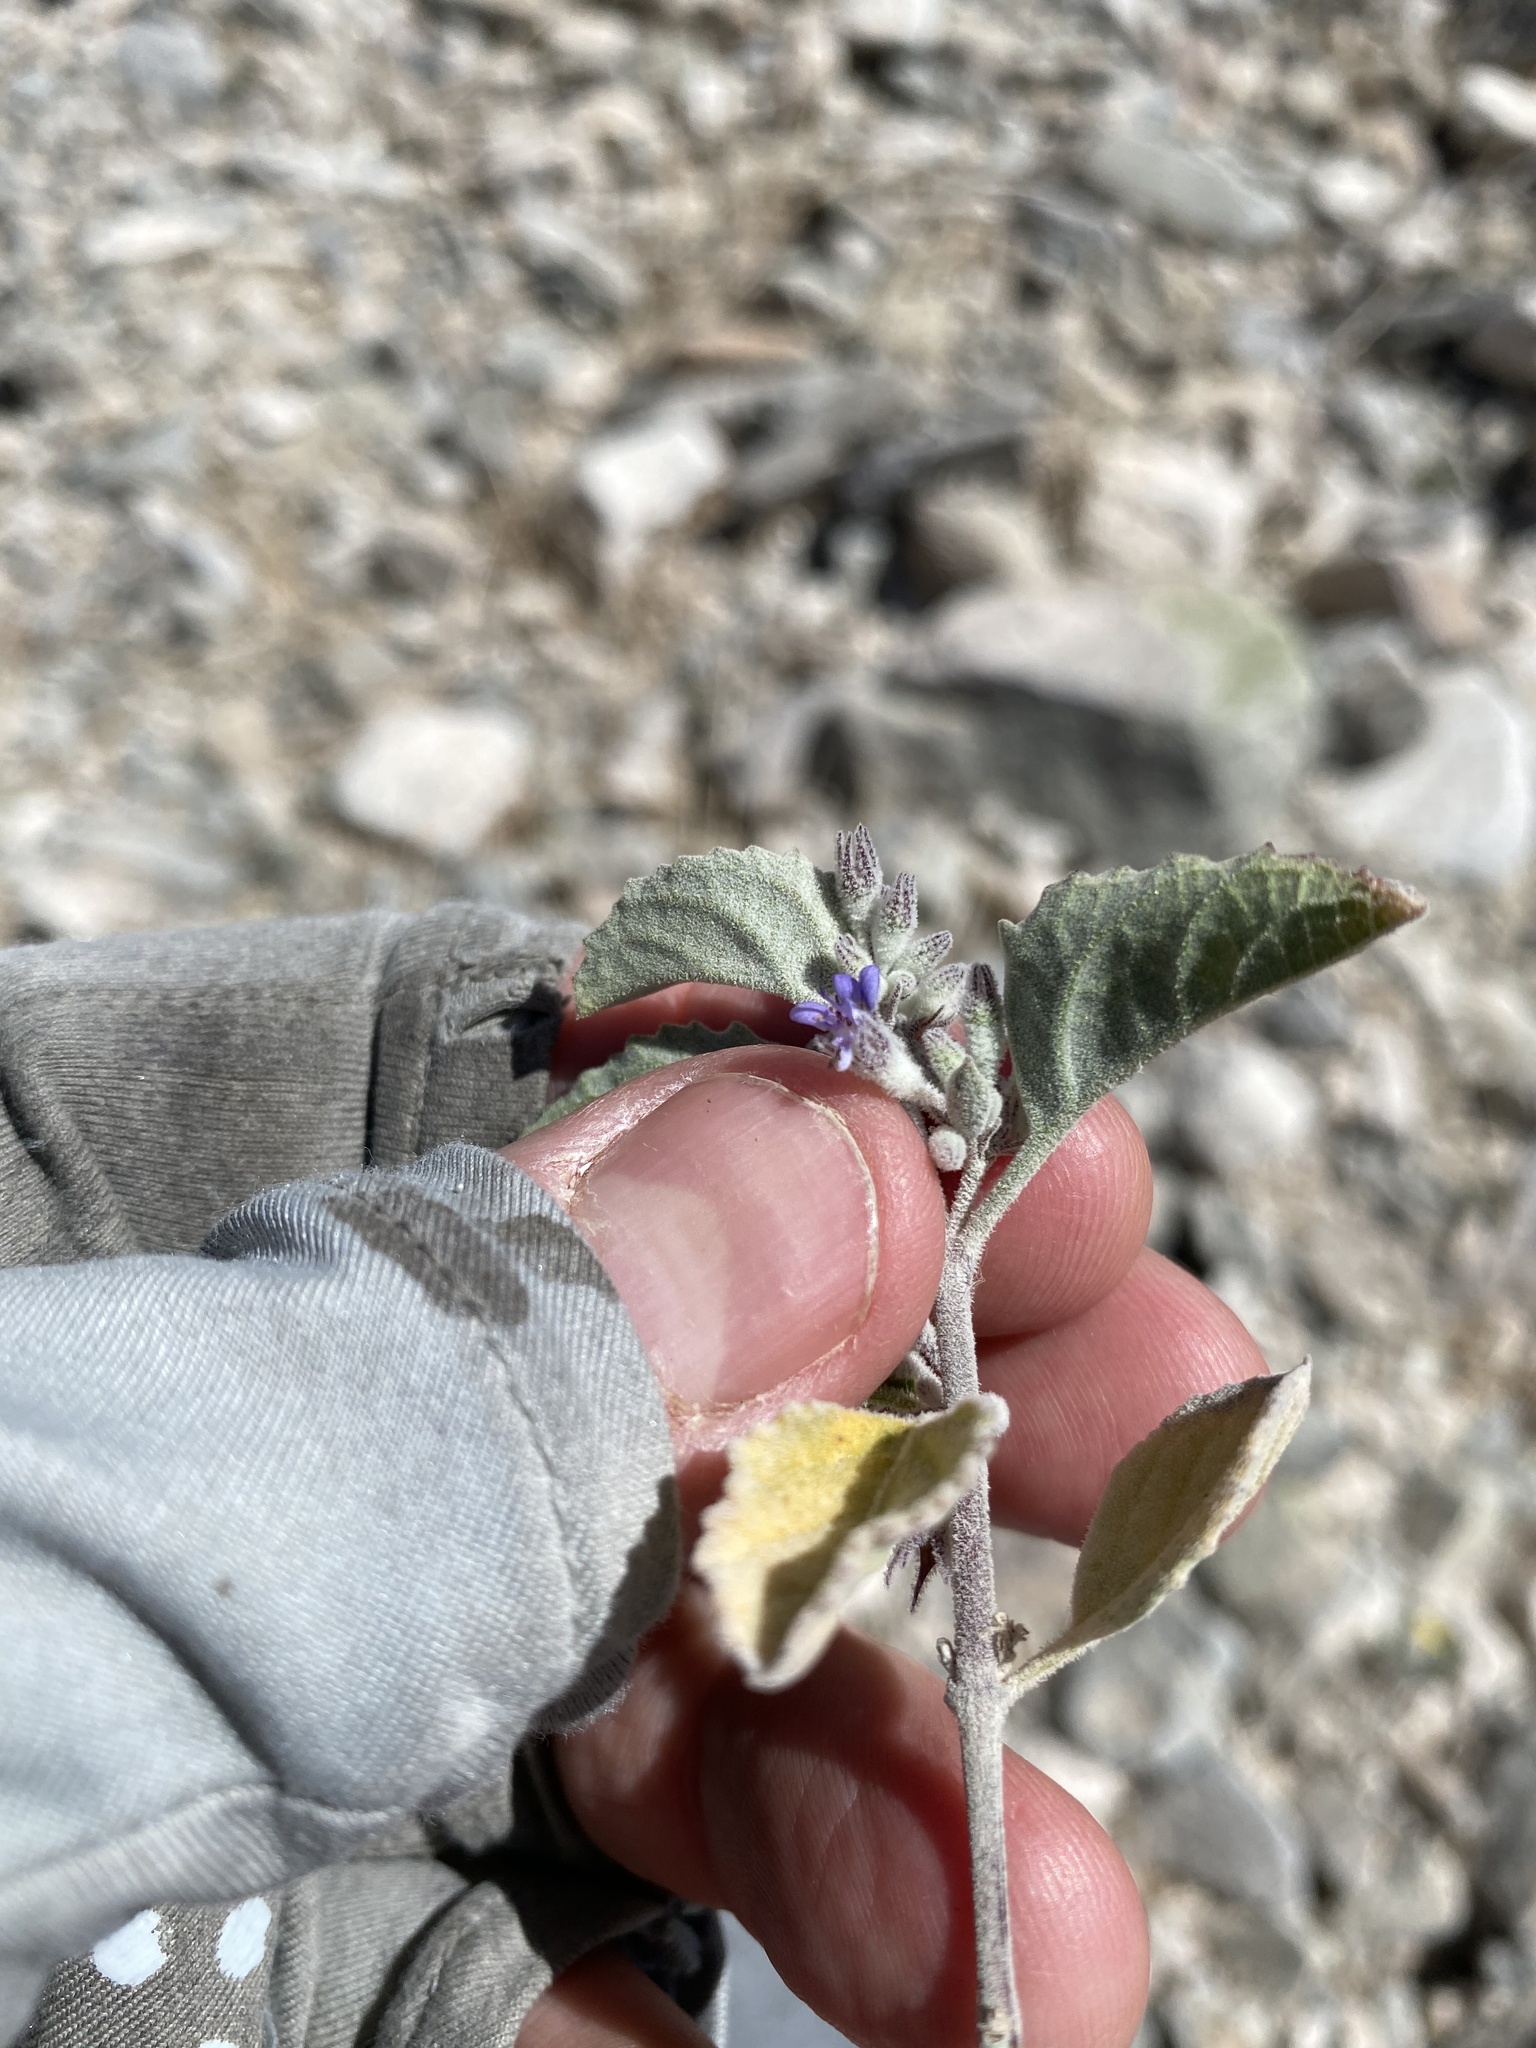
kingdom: Plantae
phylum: Tracheophyta
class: Magnoliopsida
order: Lamiales
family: Lamiaceae
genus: Condea
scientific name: Condea emoryi
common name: Chia
